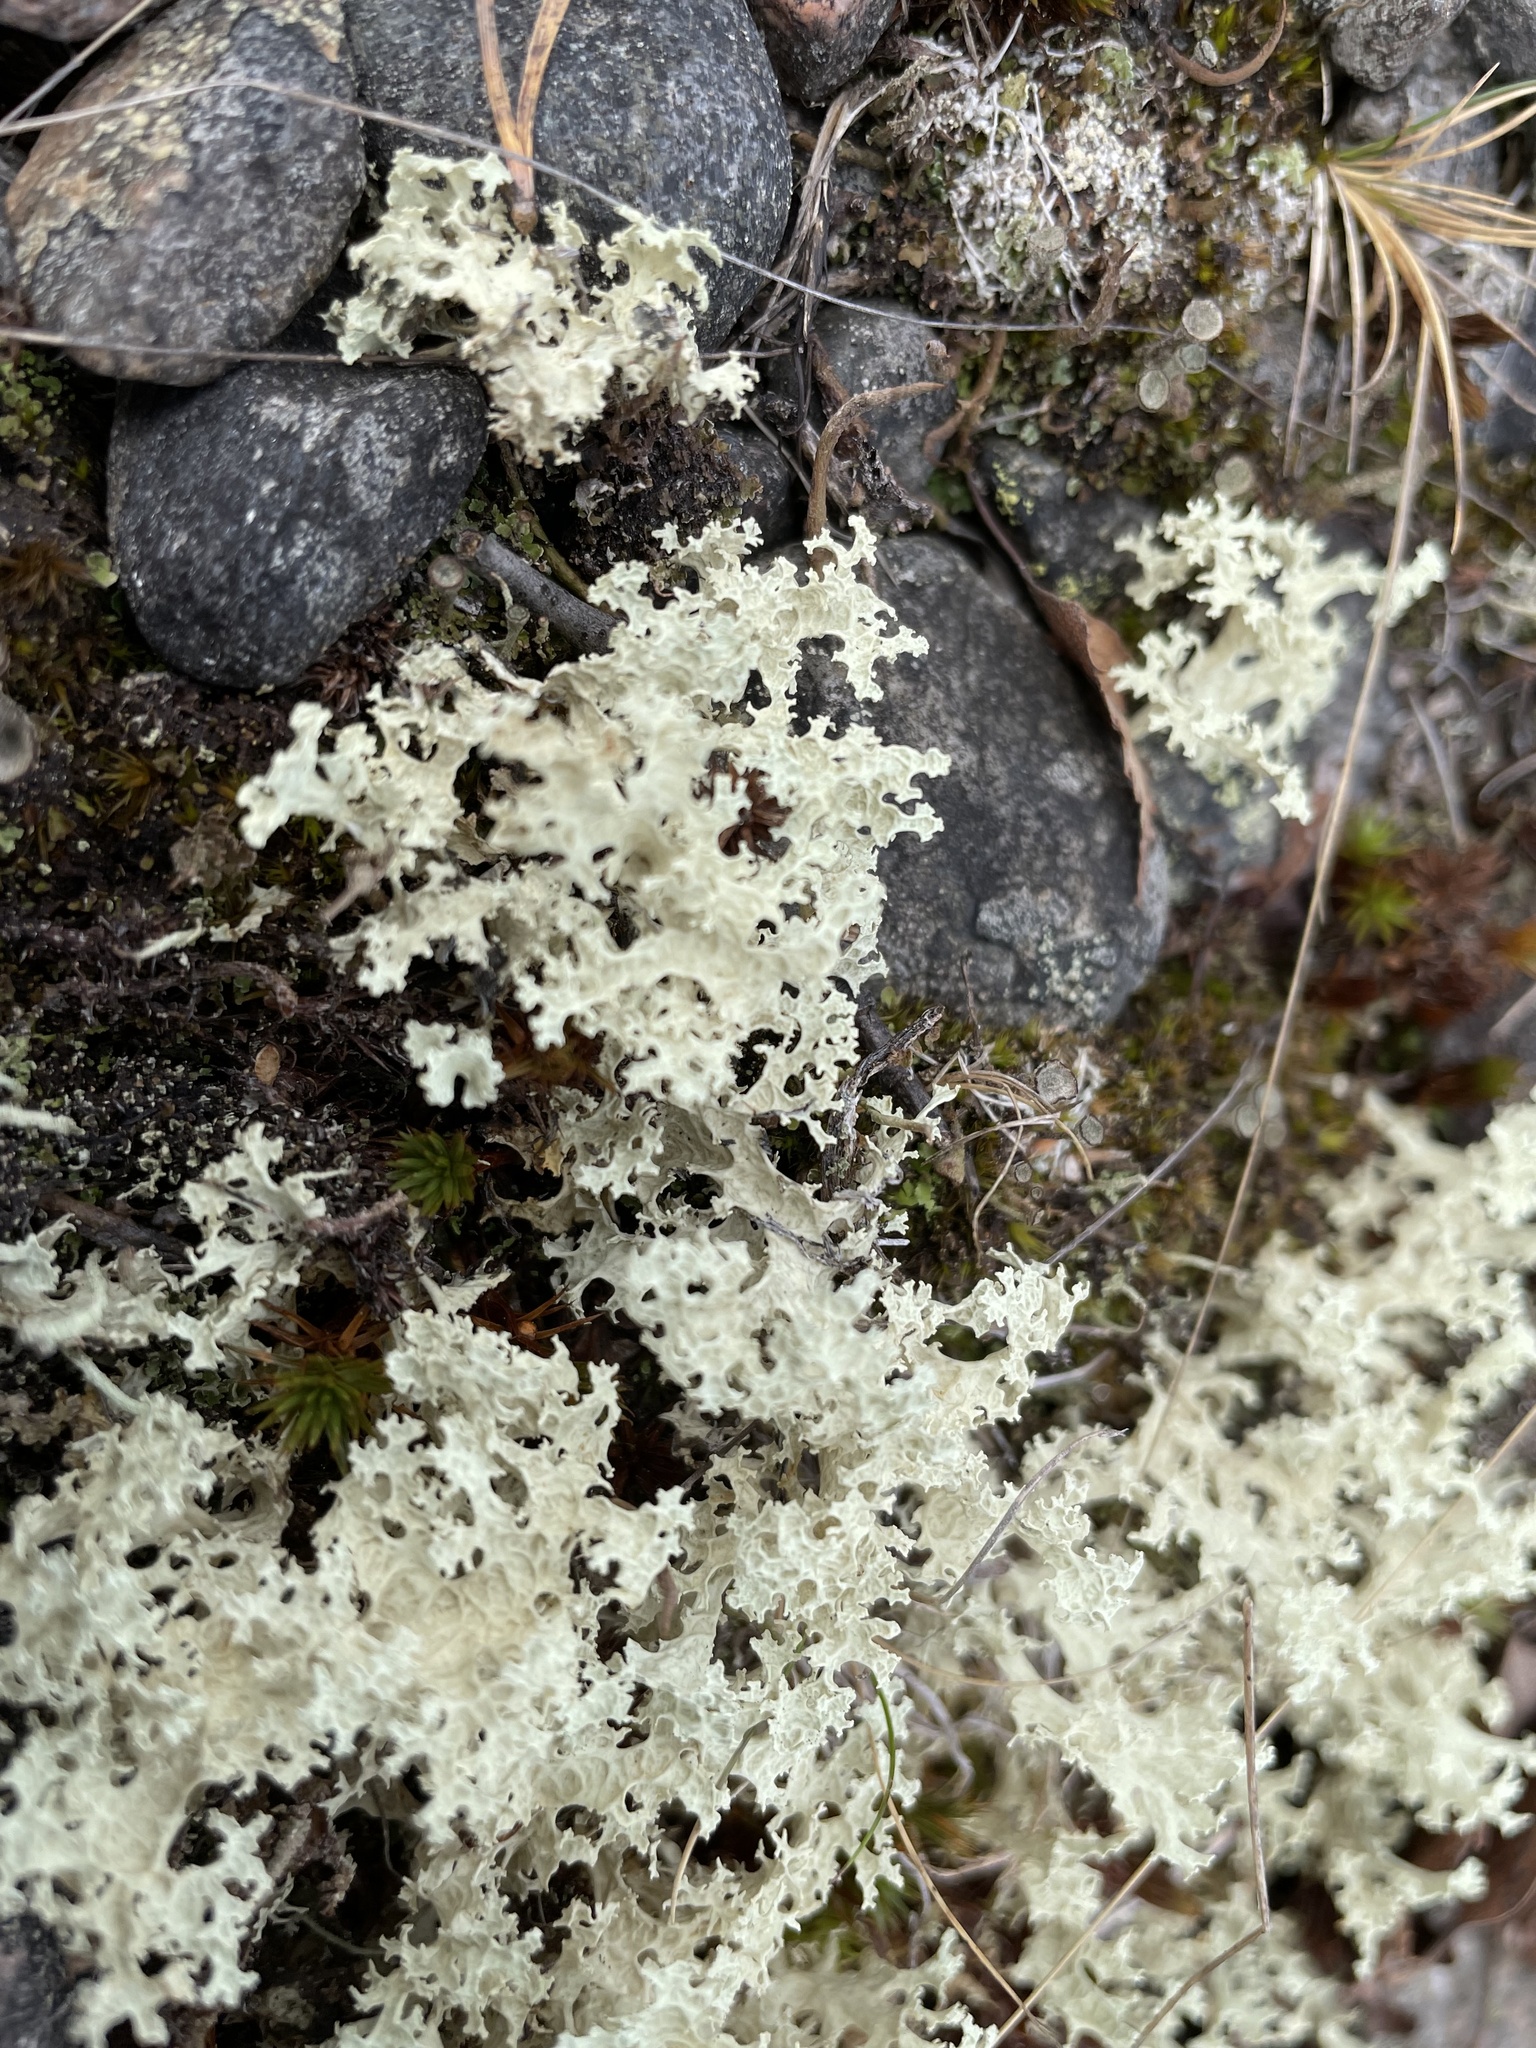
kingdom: Fungi
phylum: Ascomycota
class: Lecanoromycetes
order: Lecanorales
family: Parmeliaceae
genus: Nephromopsis
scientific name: Nephromopsis nivalis
